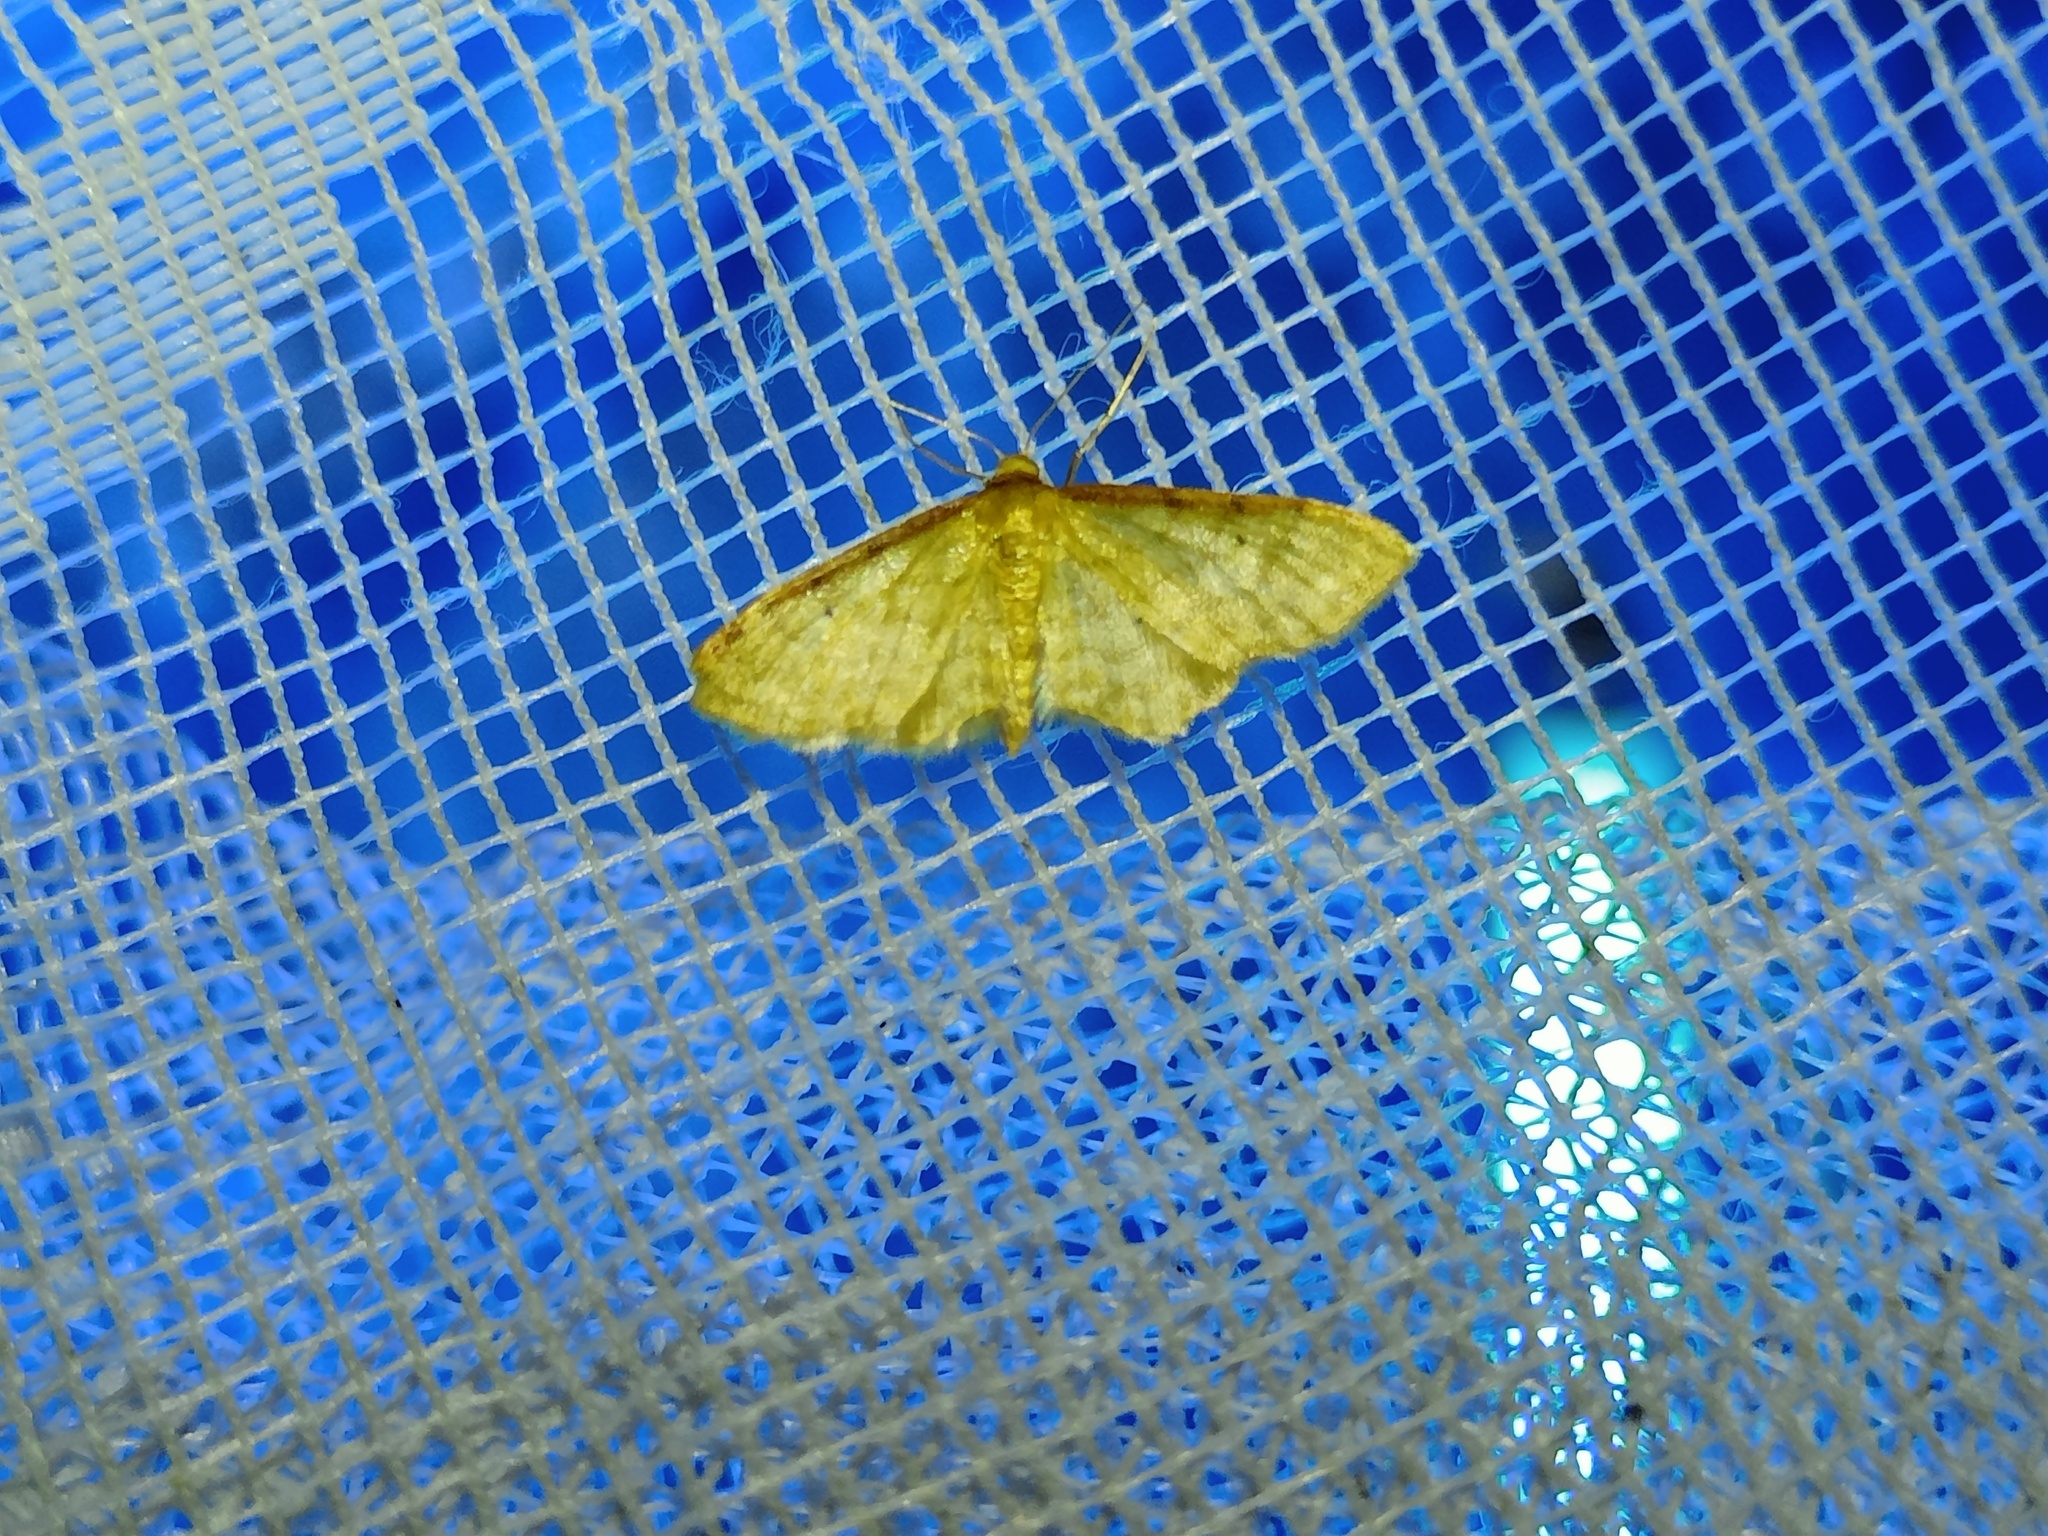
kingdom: Animalia
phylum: Arthropoda
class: Insecta
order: Lepidoptera
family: Geometridae
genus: Idaea
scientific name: Idaea humiliata
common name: Isle of wight wave
